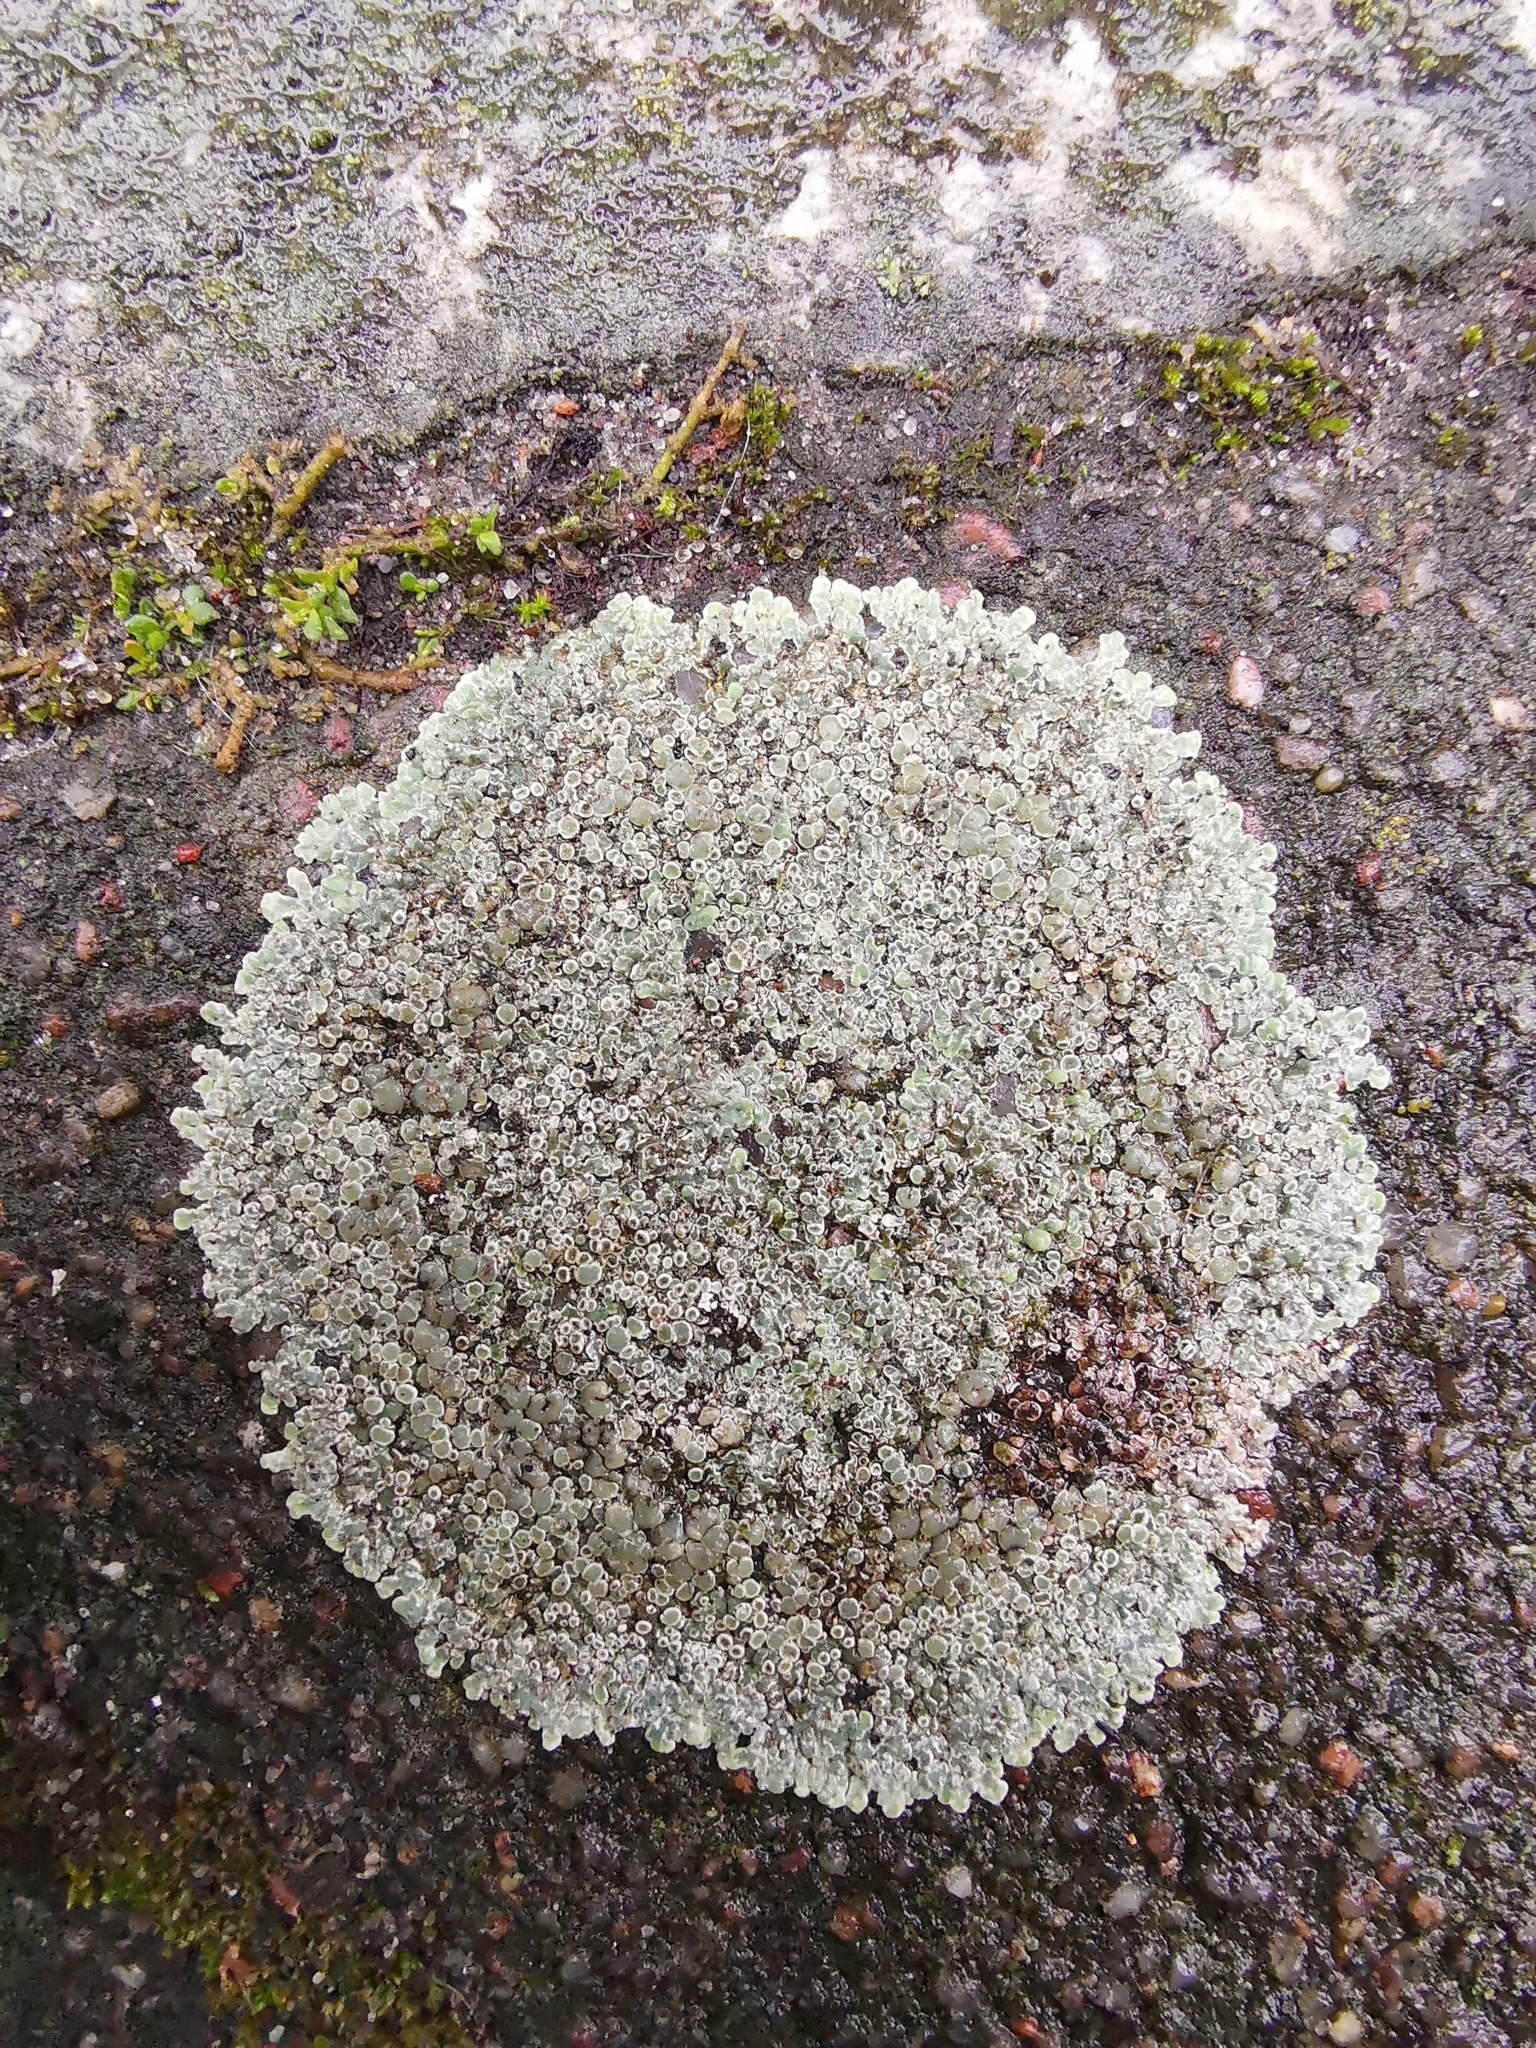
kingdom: Fungi
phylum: Ascomycota
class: Lecanoromycetes
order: Lecanorales
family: Lecanoraceae
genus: Protoparmeliopsis
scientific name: Protoparmeliopsis muralis
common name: Stonewall rim lichen
